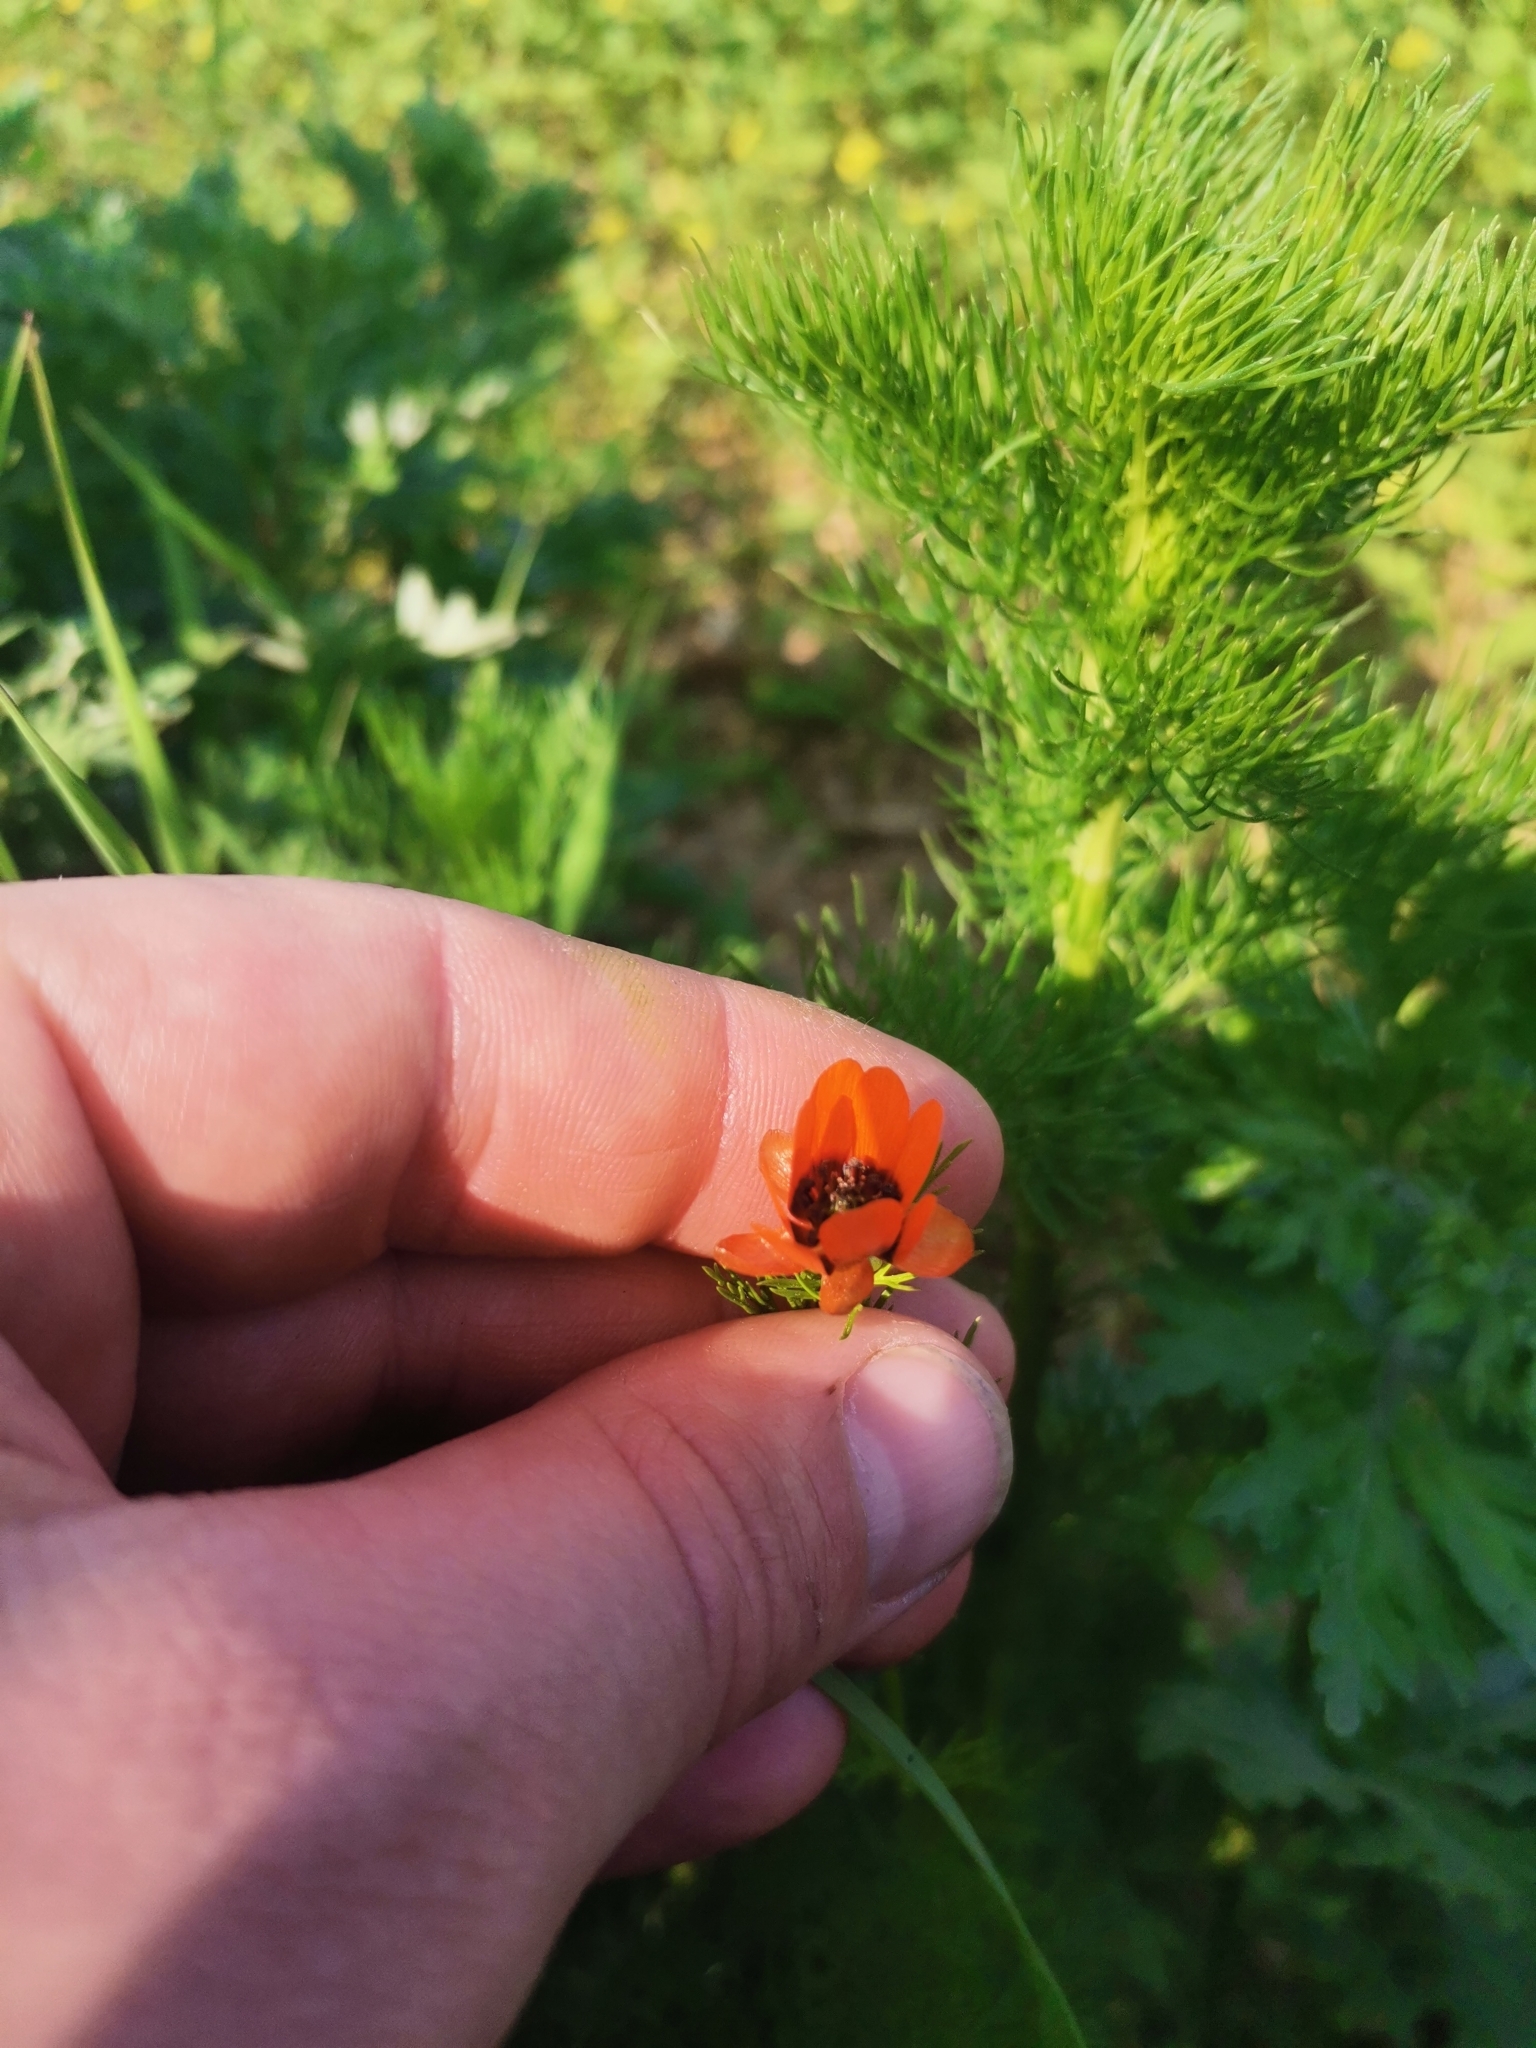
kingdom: Plantae
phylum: Tracheophyta
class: Magnoliopsida
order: Ranunculales
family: Ranunculaceae
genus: Adonis
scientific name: Adonis aestivalis
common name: Summer pheasant's-eye
